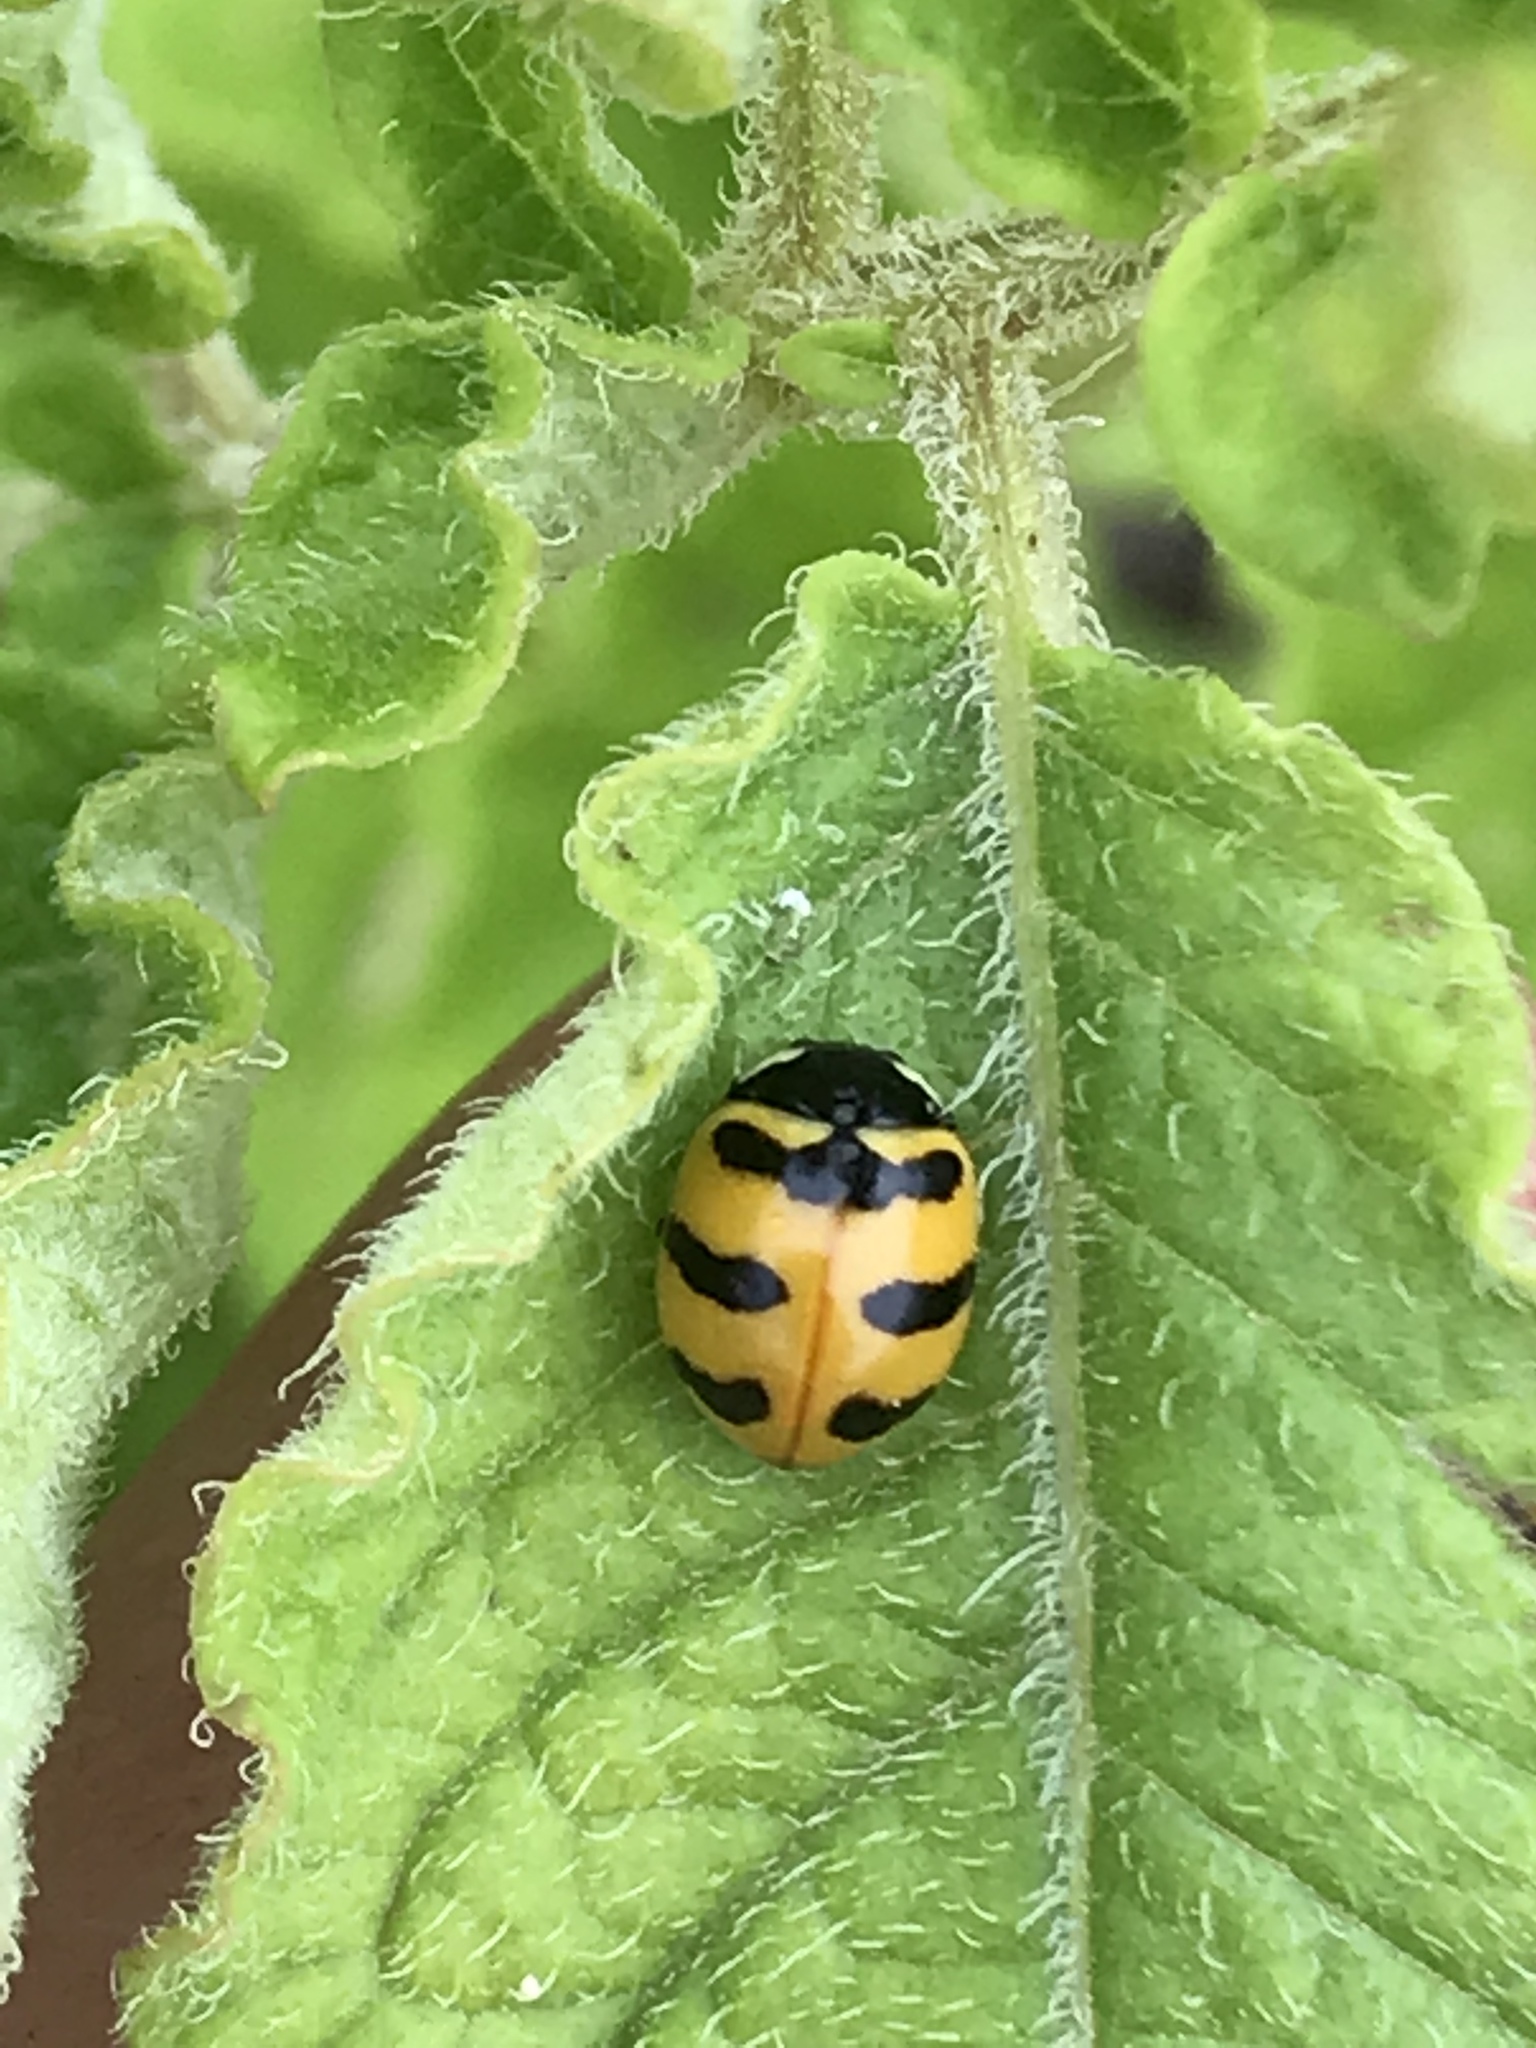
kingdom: Animalia
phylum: Arthropoda
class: Insecta
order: Coleoptera
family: Coccinellidae
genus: Coccinella
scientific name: Coccinella trifasciata
